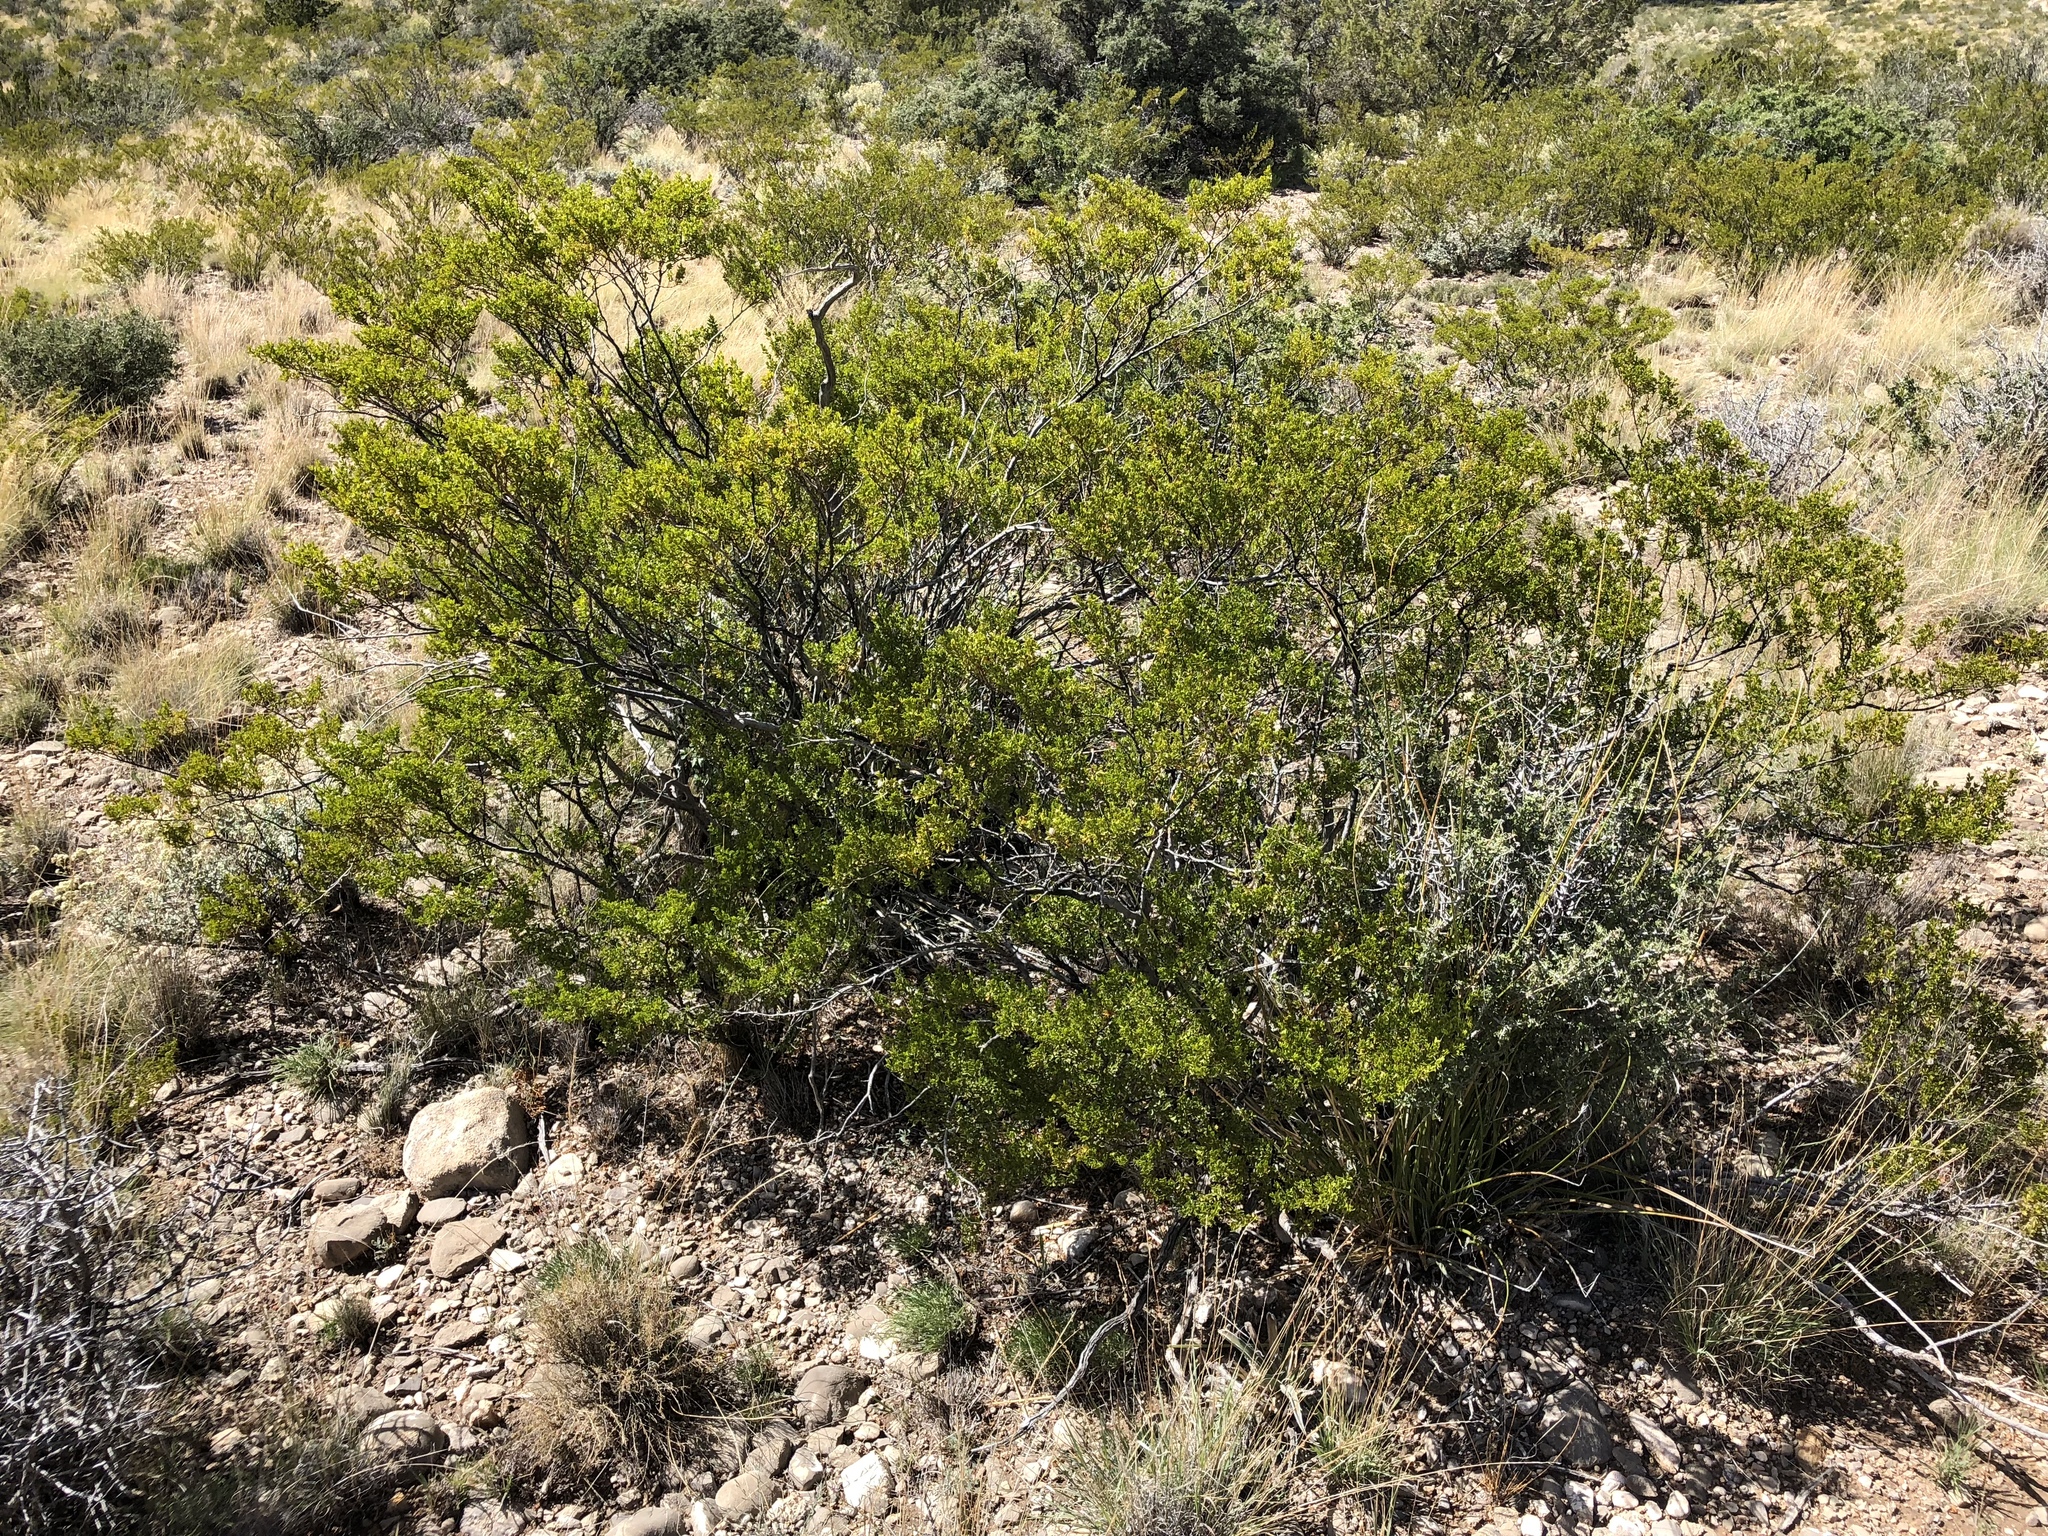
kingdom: Plantae
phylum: Tracheophyta
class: Magnoliopsida
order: Zygophyllales
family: Zygophyllaceae
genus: Larrea
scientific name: Larrea tridentata
